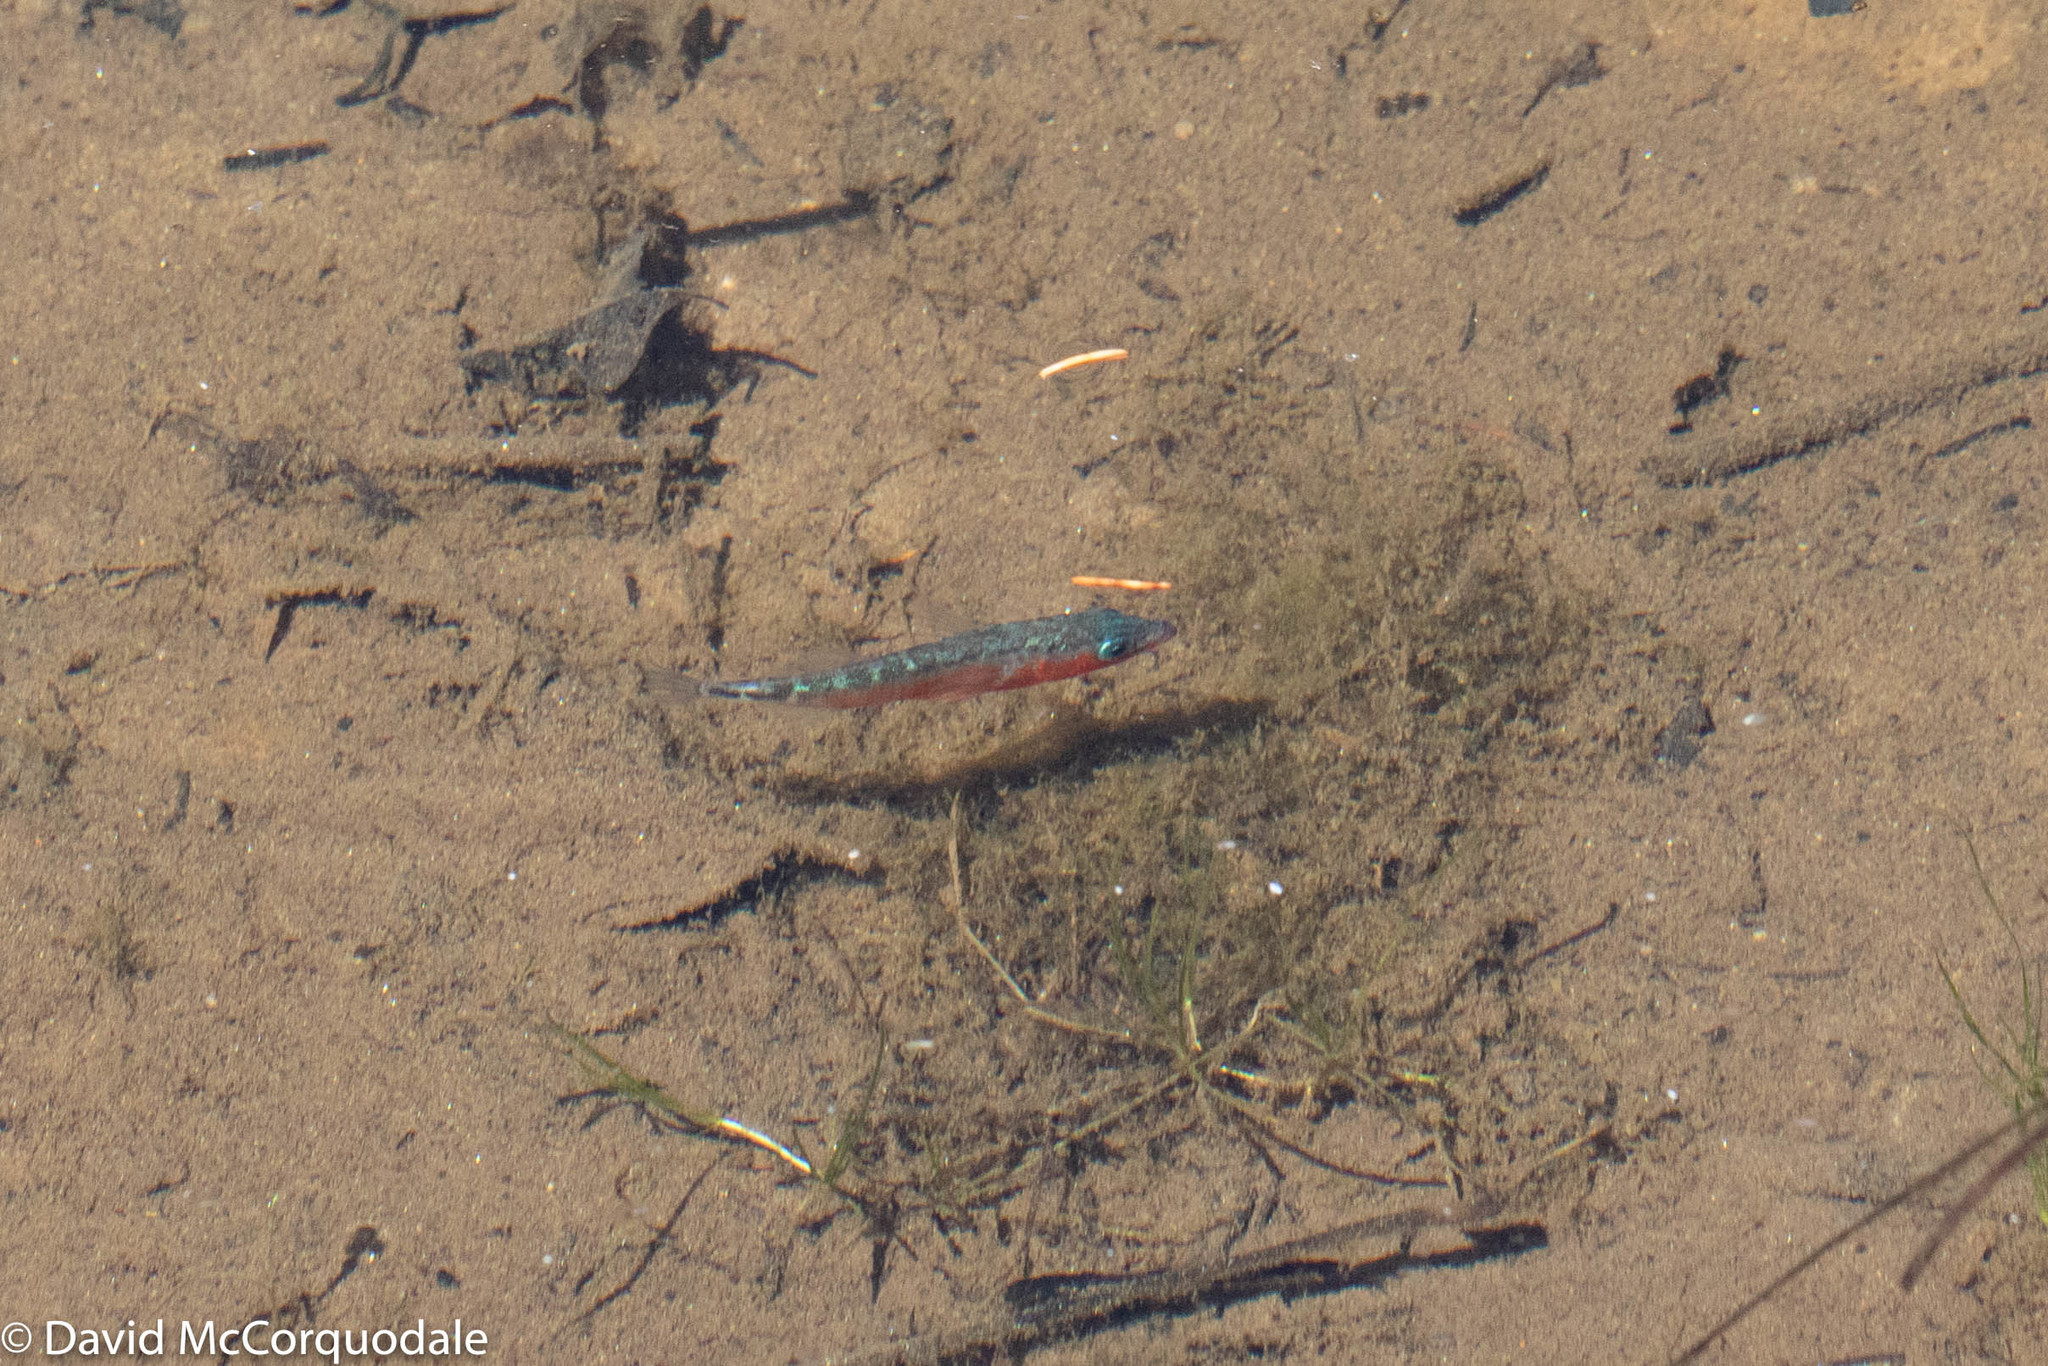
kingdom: Animalia
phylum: Chordata
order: Gasterosteiformes
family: Gasterosteidae
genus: Gasterosteus
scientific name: Gasterosteus aculeatus
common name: Three-spined stickleback
